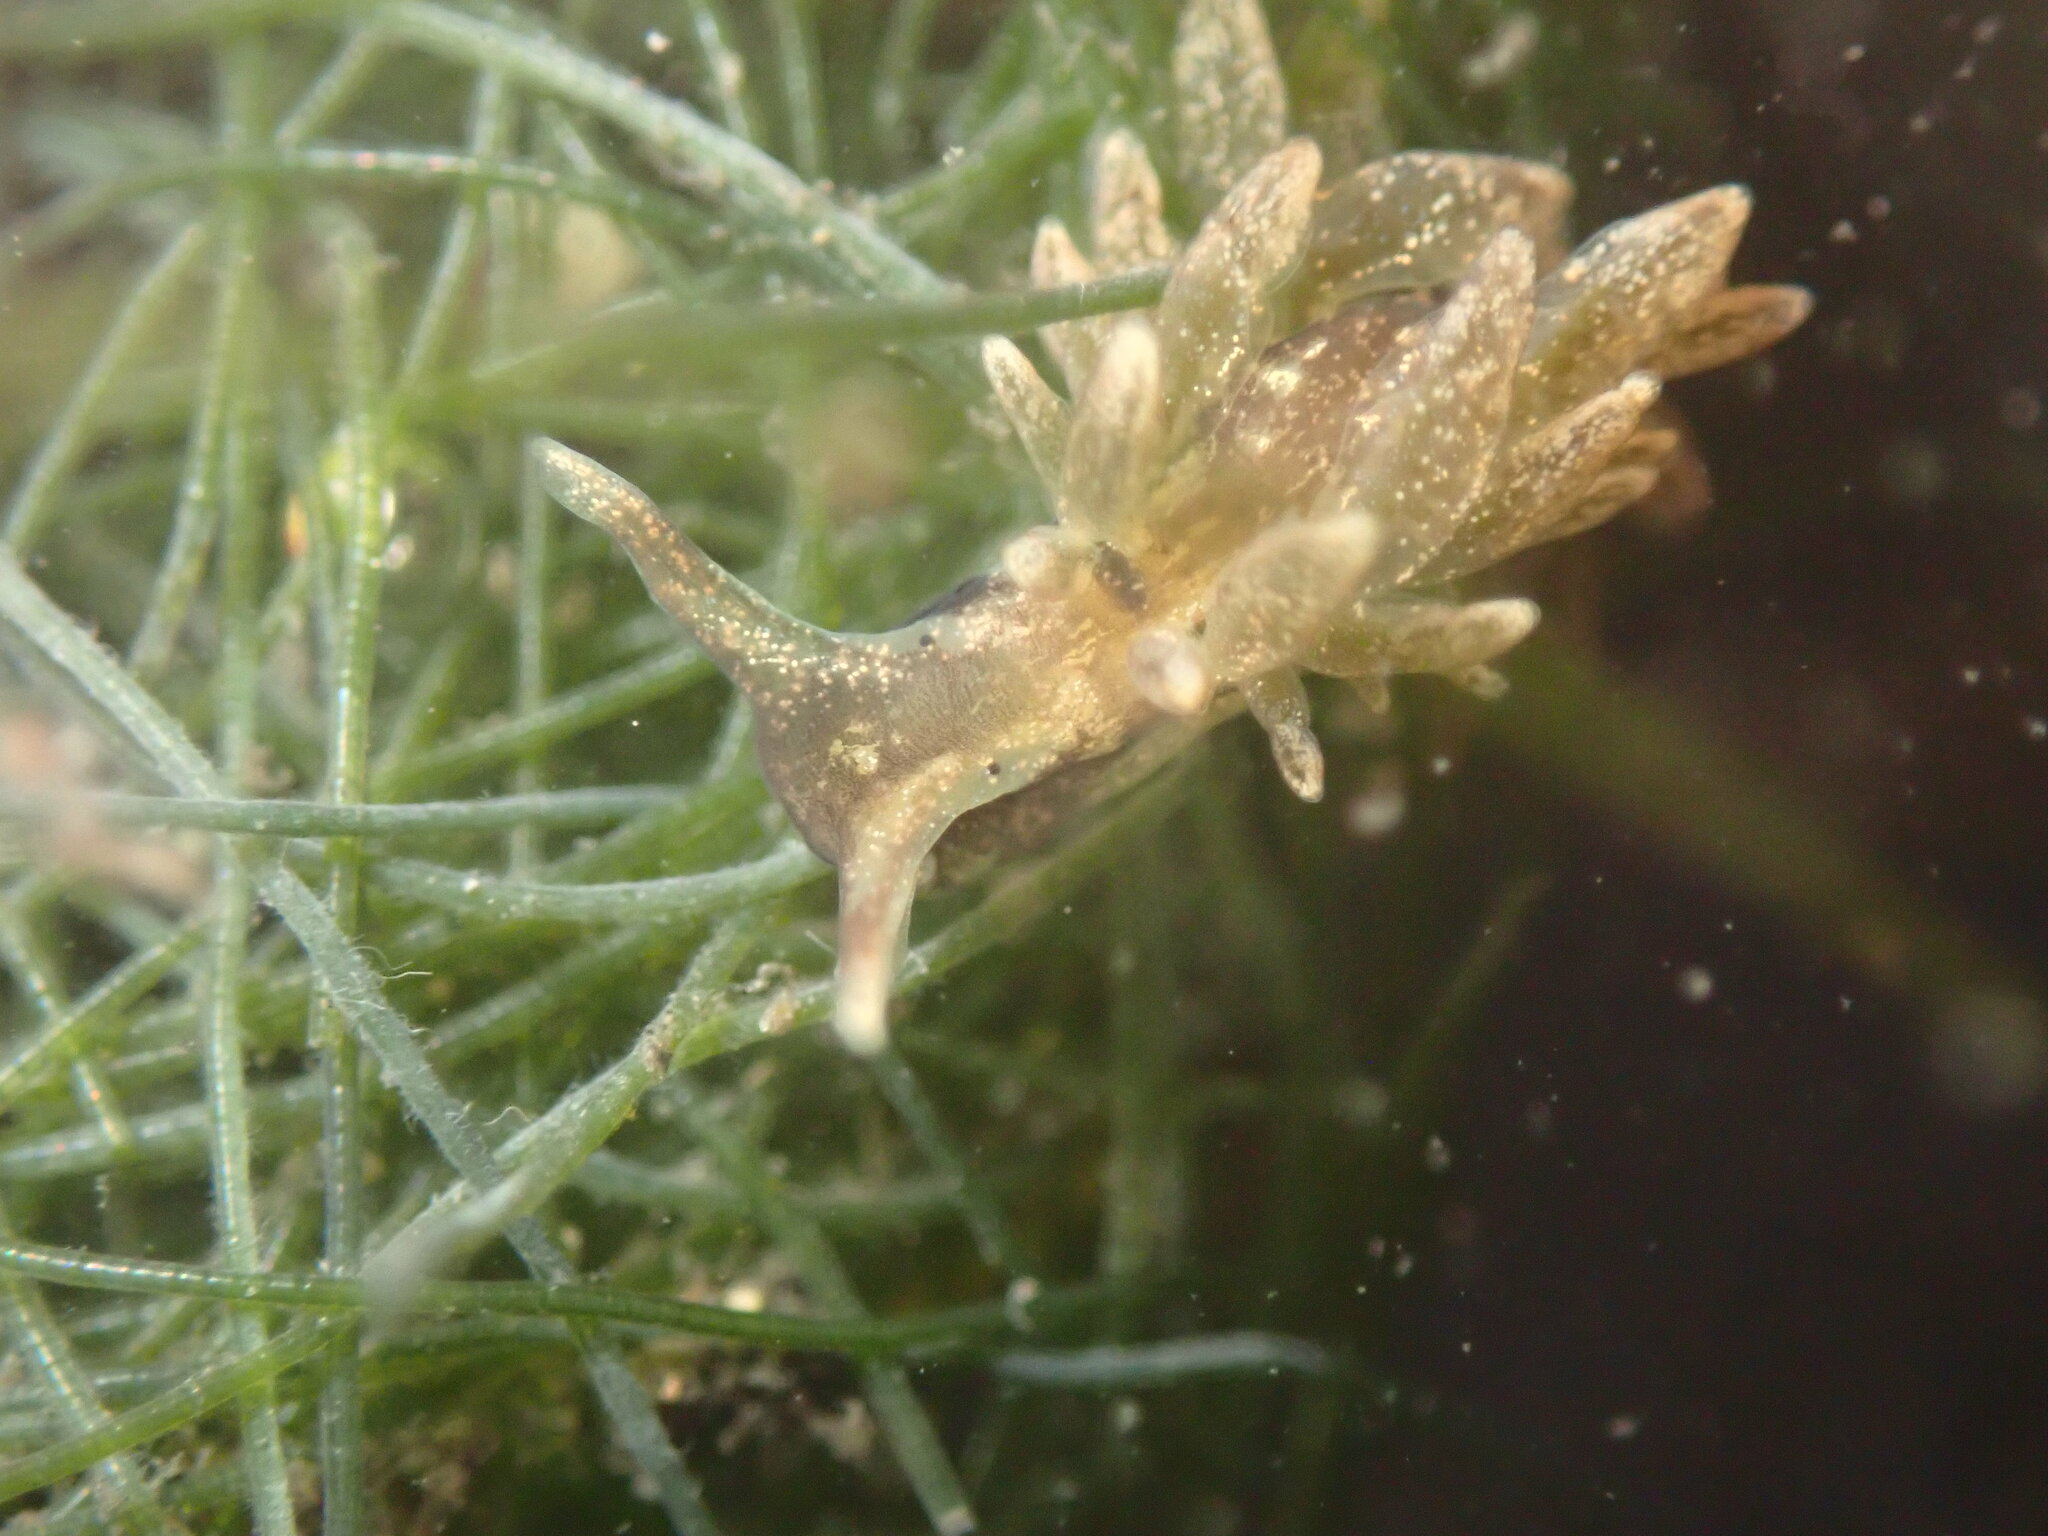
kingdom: Animalia
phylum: Mollusca
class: Gastropoda
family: Hermaeidae
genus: Aplysiopsis
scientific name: Aplysiopsis enteromorphae
